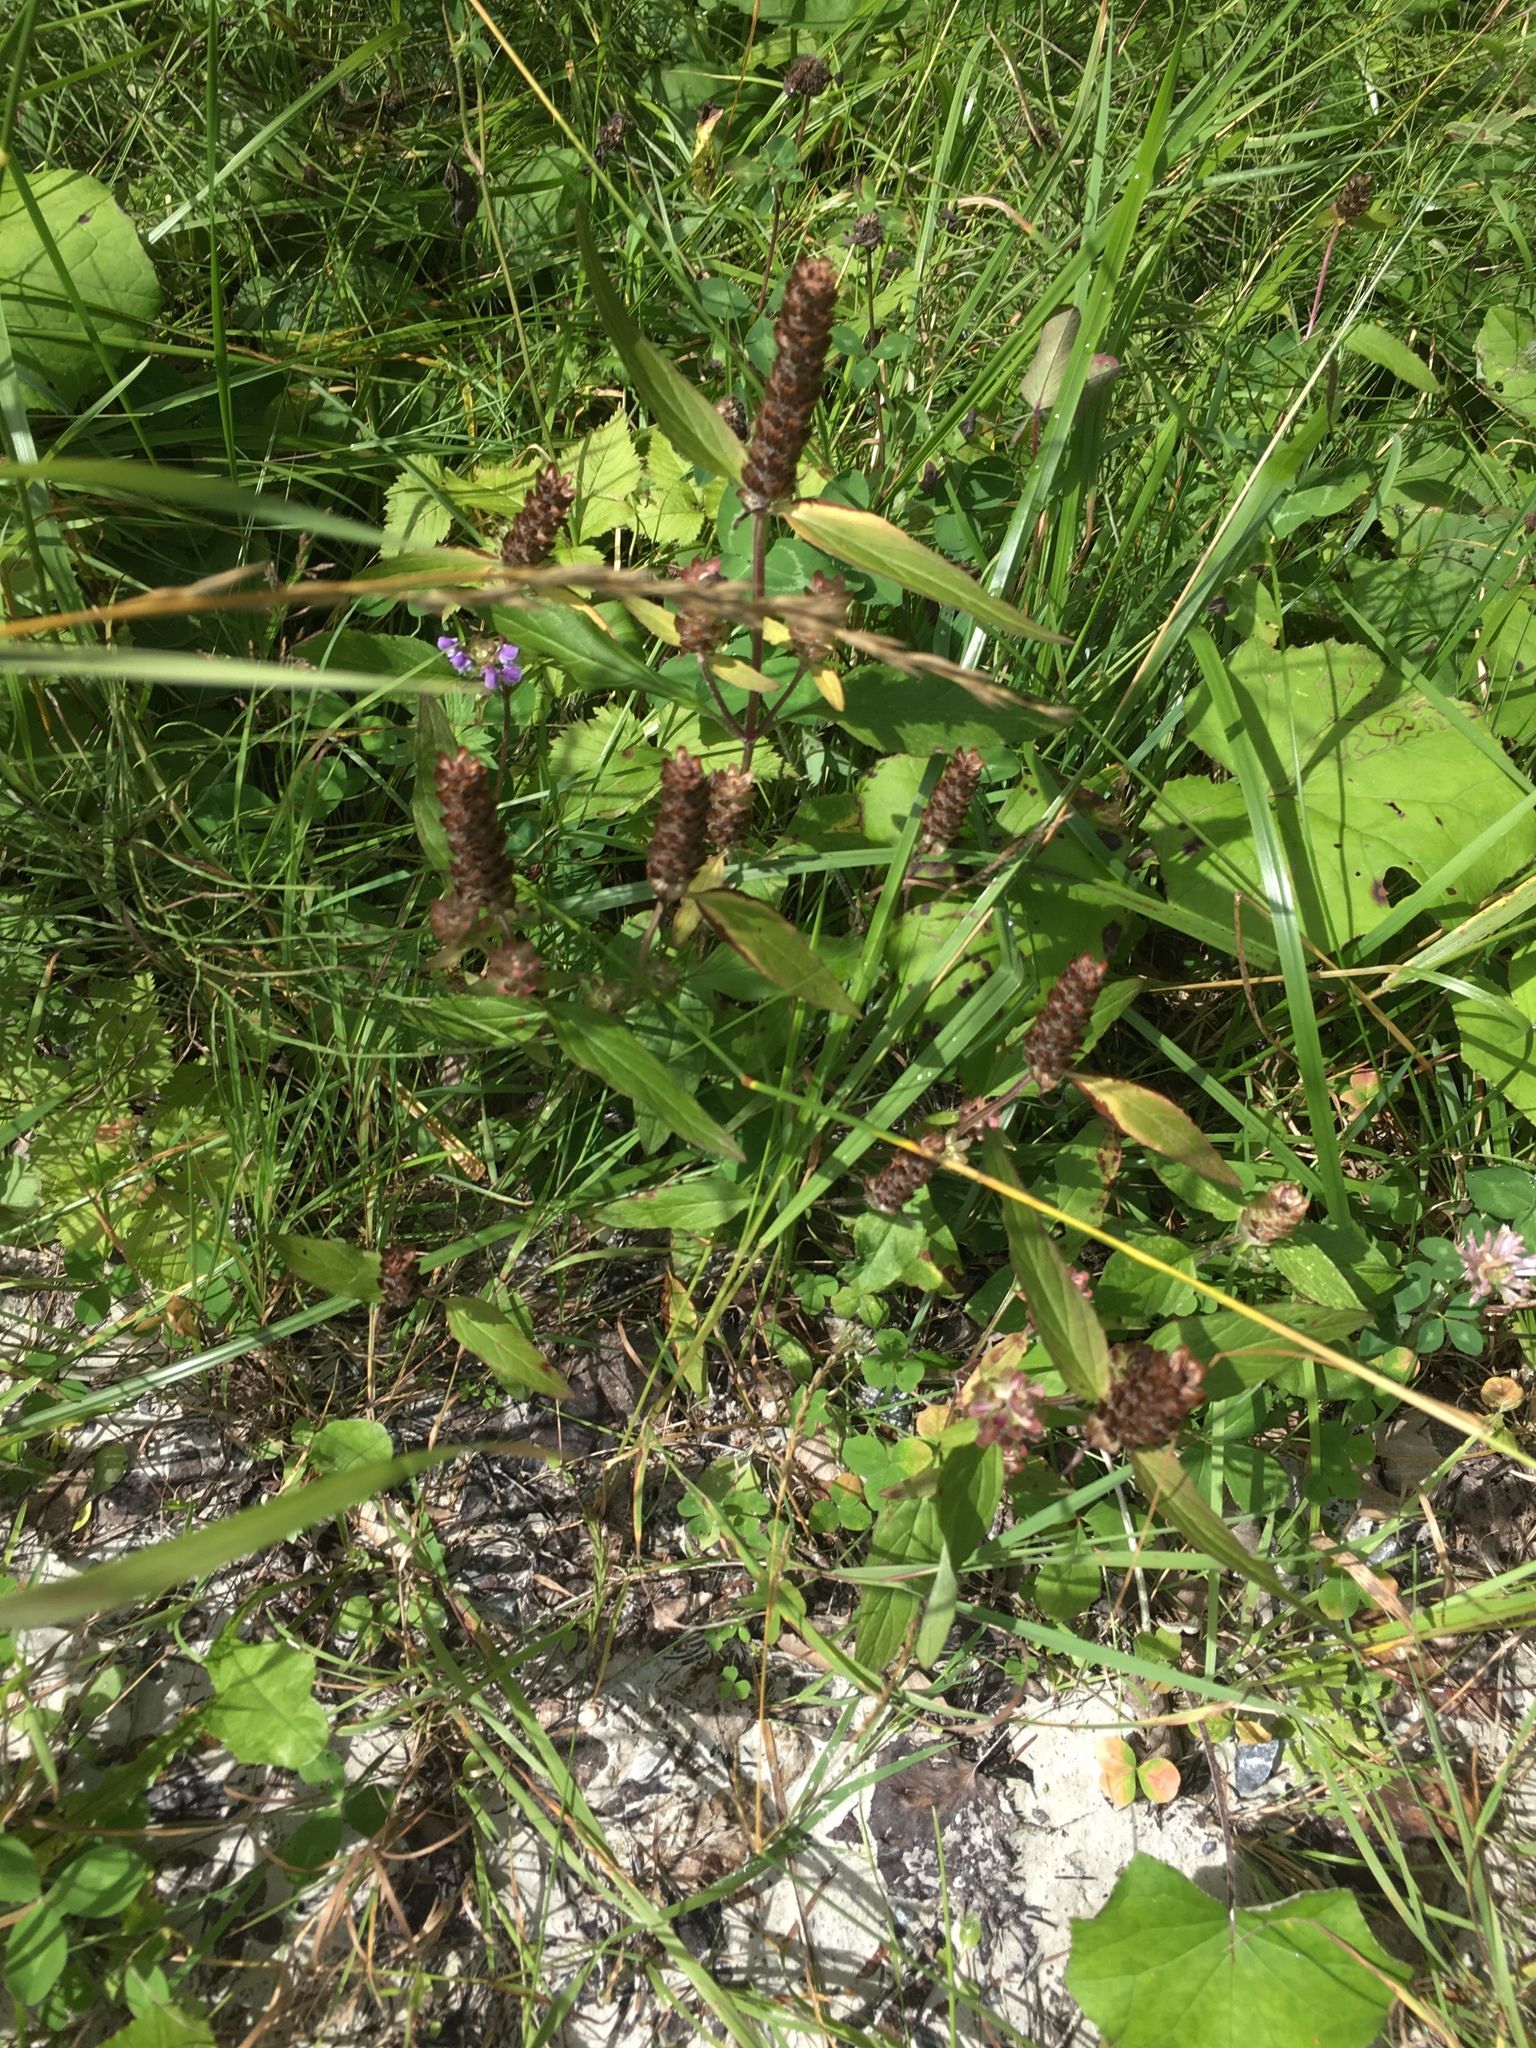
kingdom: Plantae
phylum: Tracheophyta
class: Magnoliopsida
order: Lamiales
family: Lamiaceae
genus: Prunella
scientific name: Prunella vulgaris
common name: Heal-all
